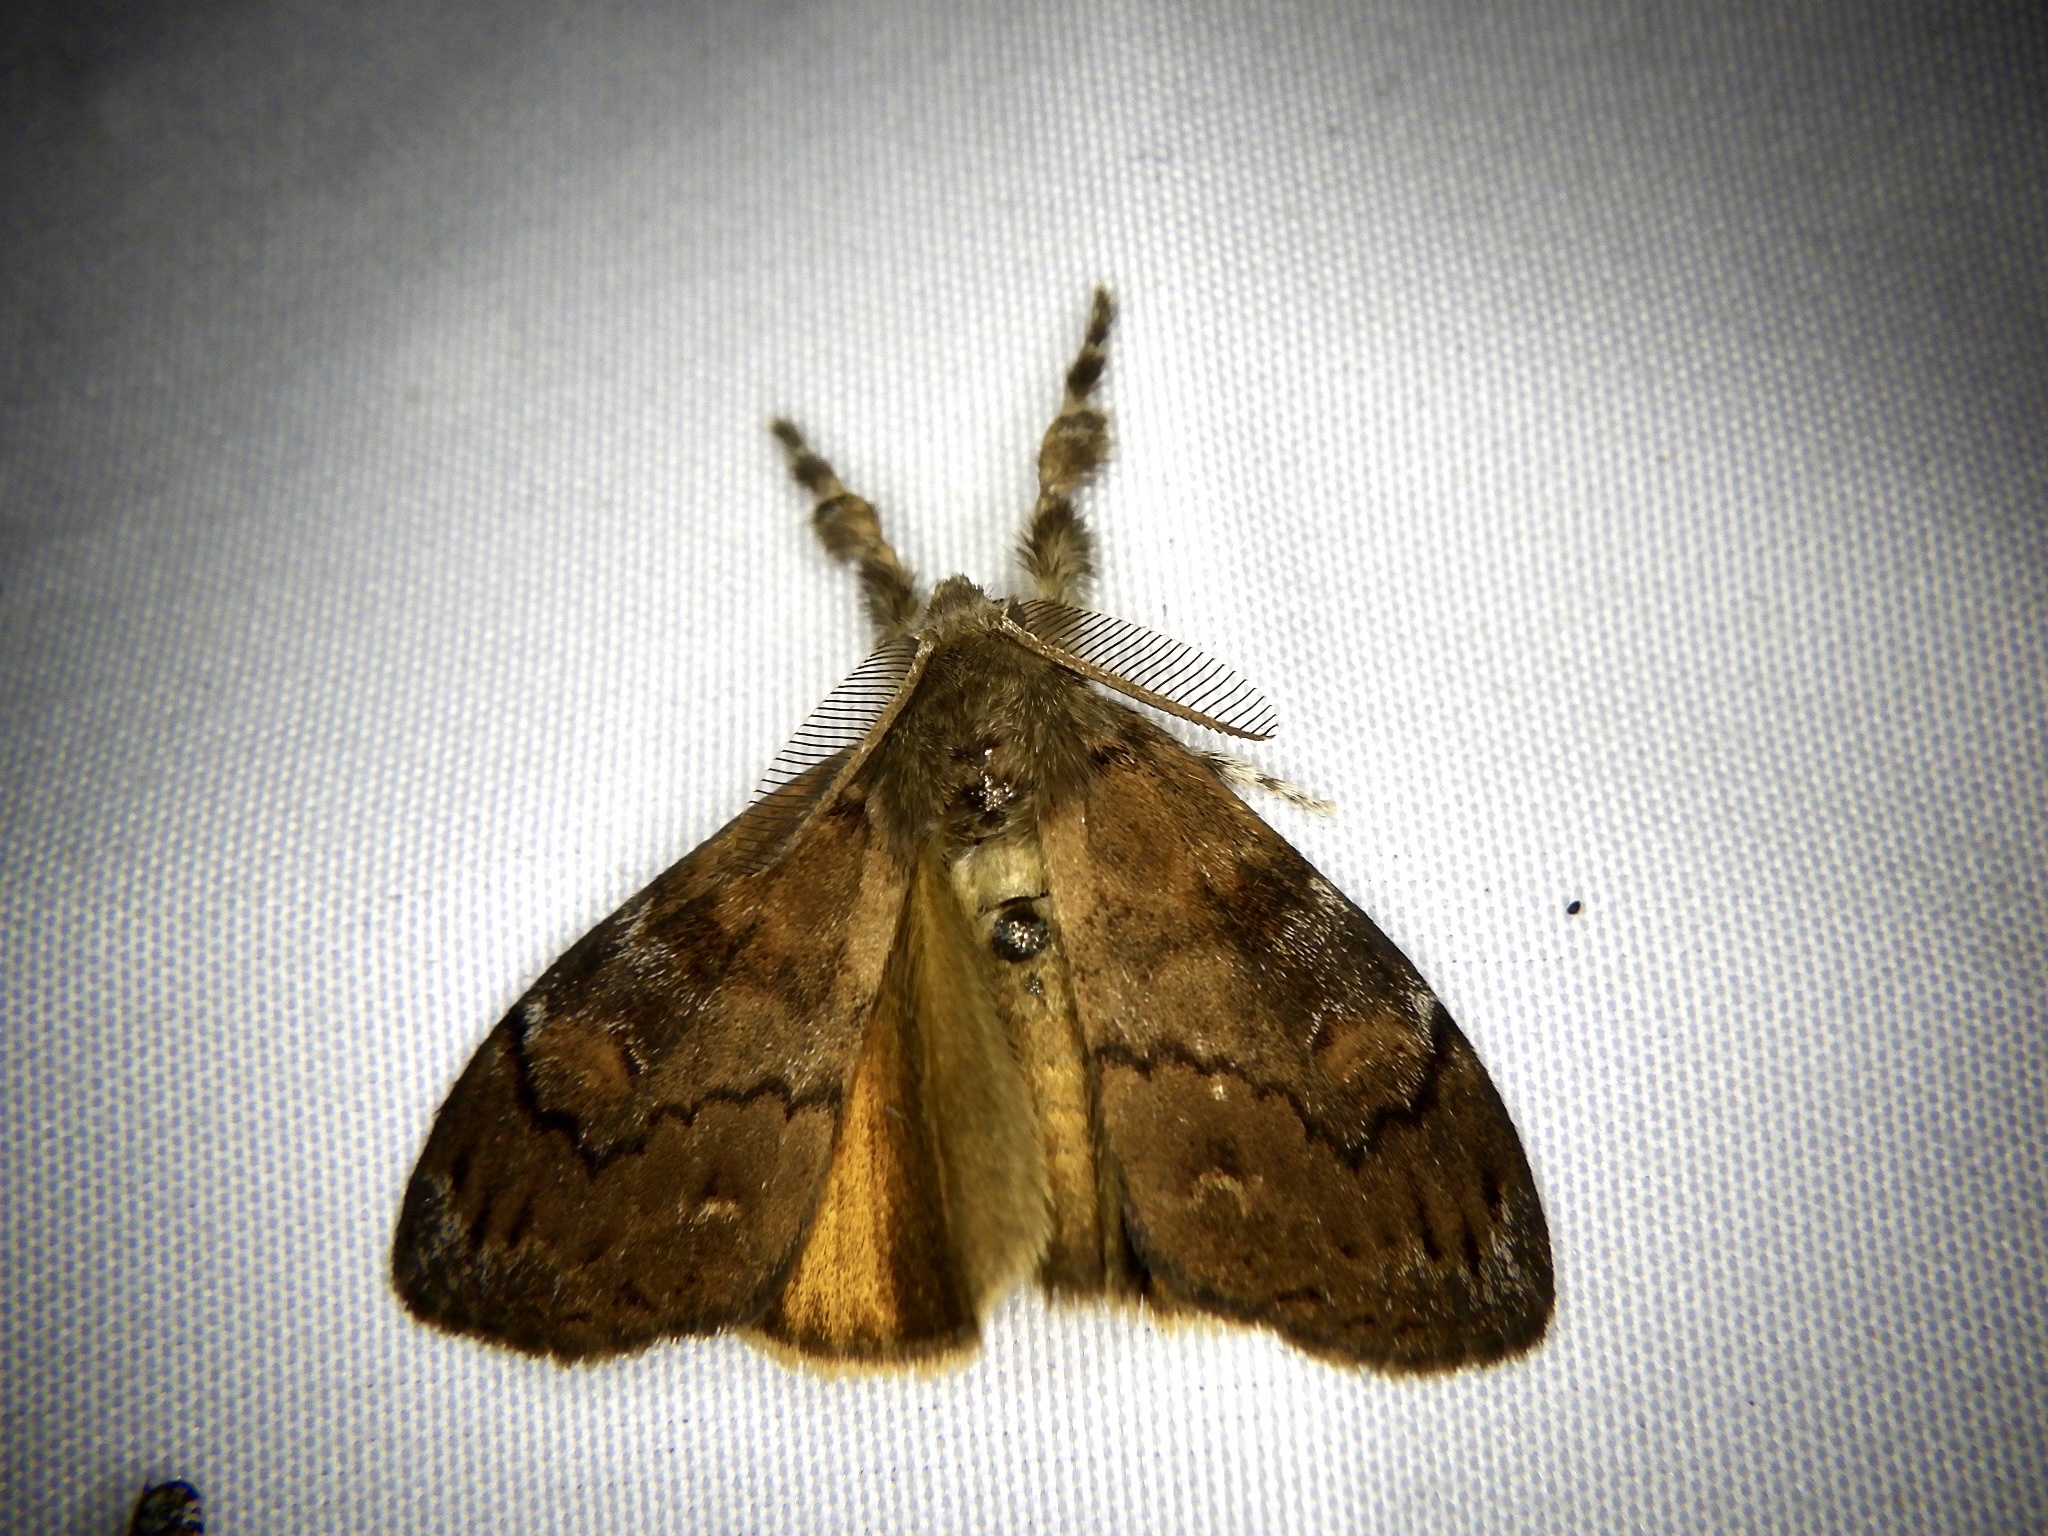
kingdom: Animalia
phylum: Arthropoda
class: Insecta
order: Lepidoptera
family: Erebidae
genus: Orgyia
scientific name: Orgyia triangularis
